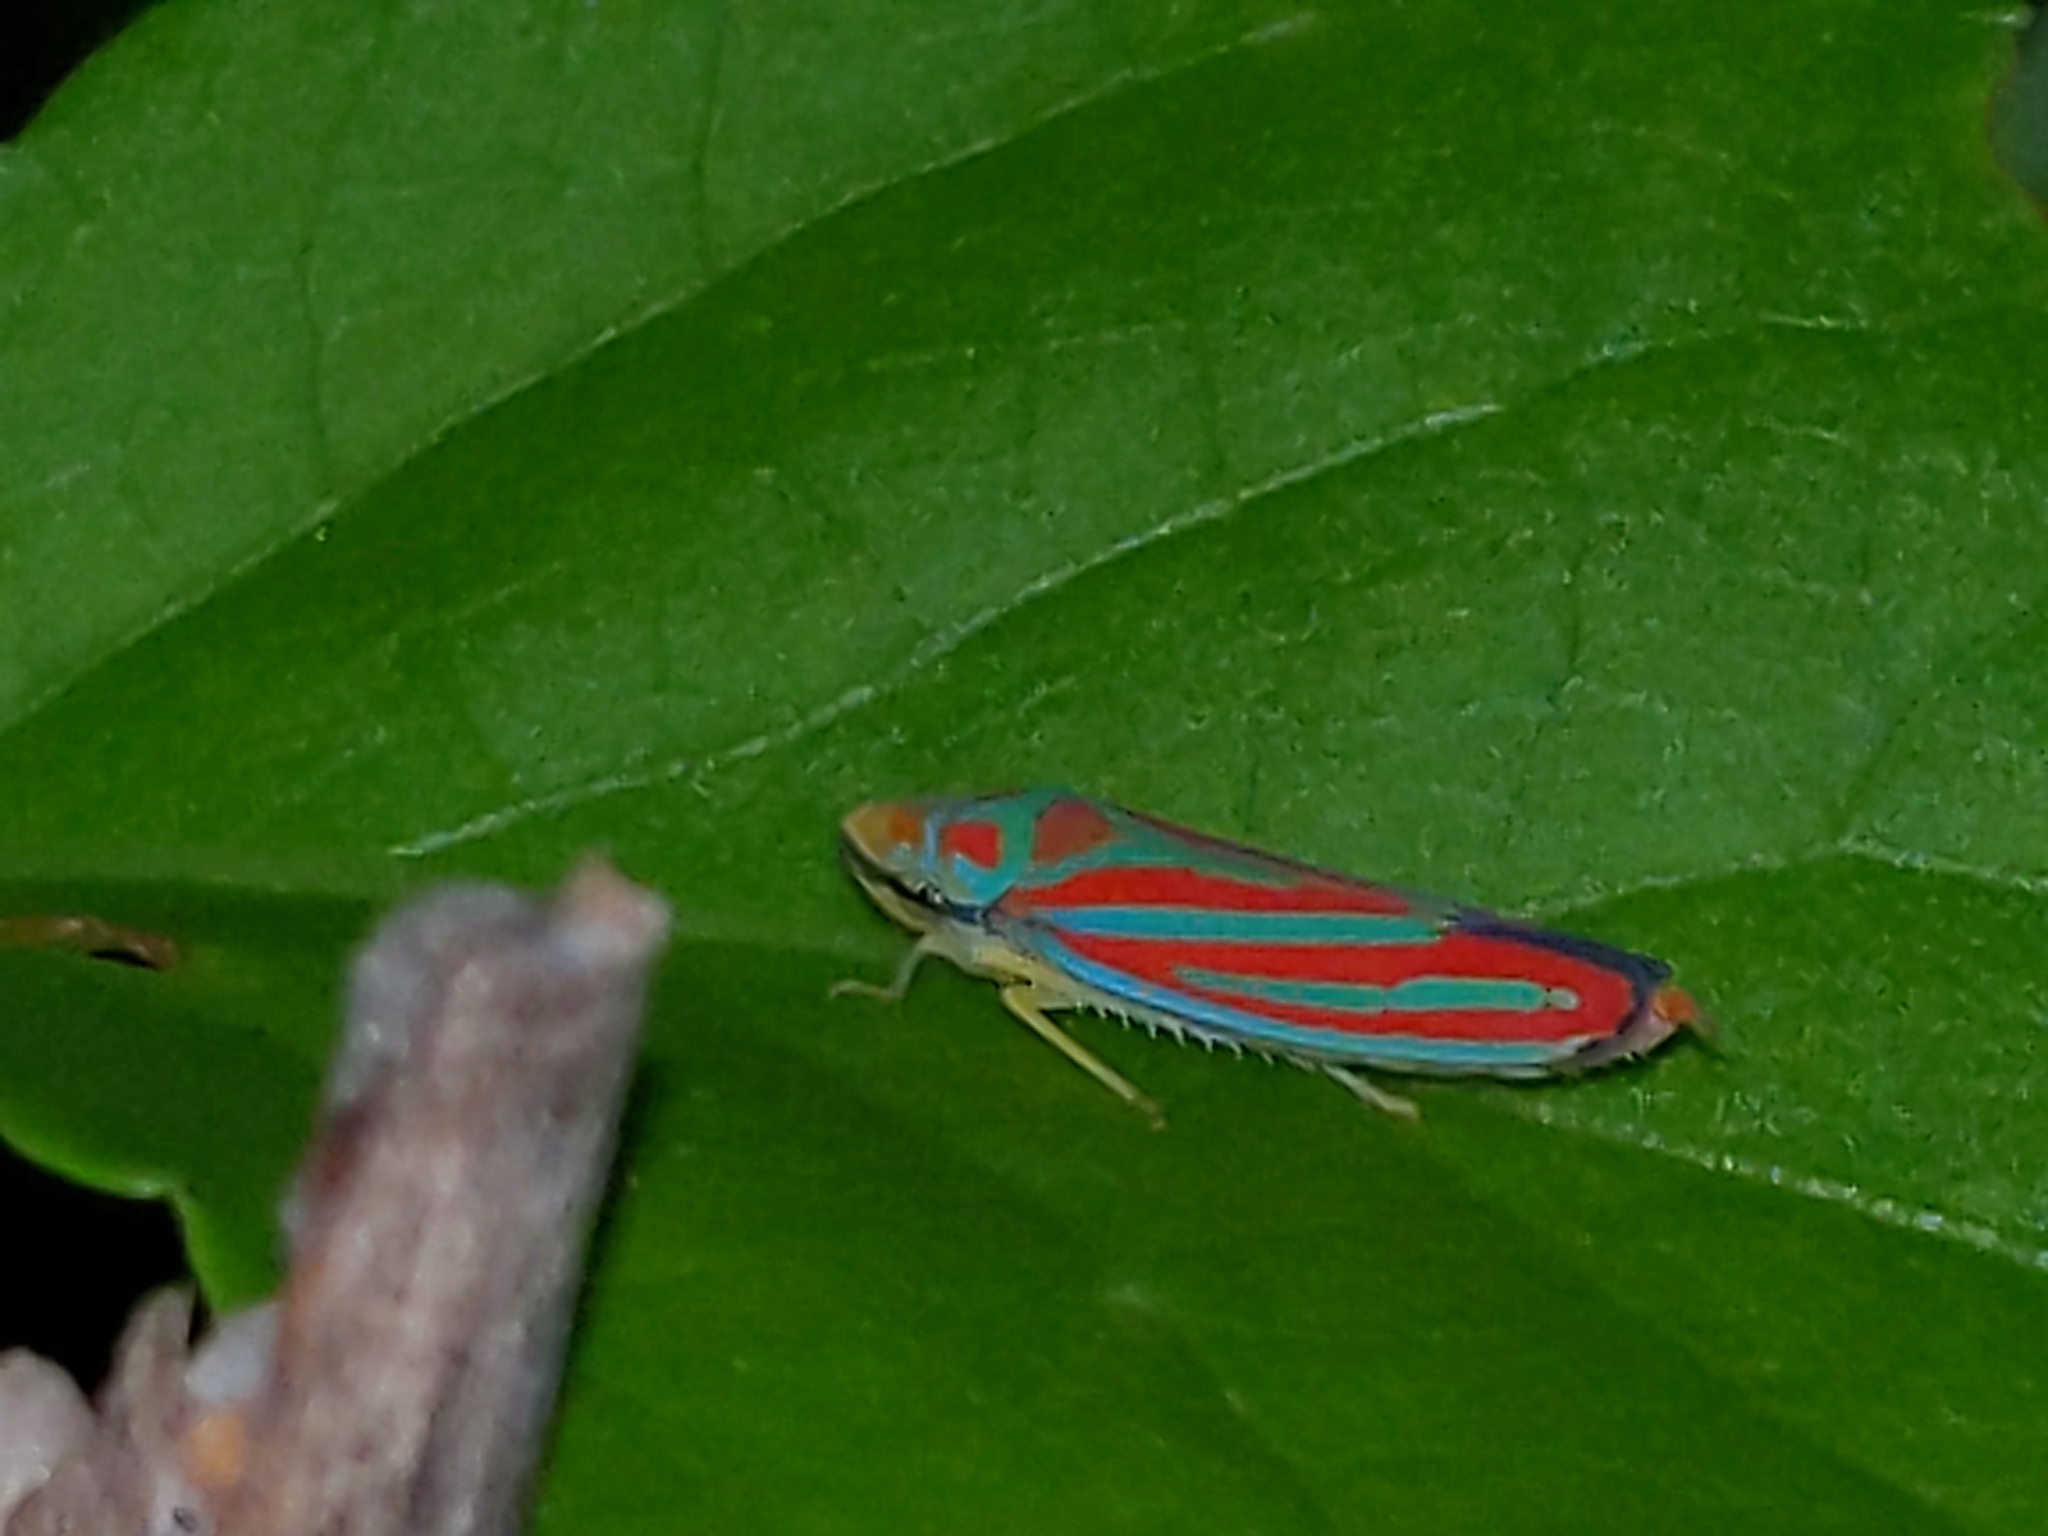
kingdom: Animalia
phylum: Arthropoda
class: Insecta
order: Hemiptera
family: Cicadellidae
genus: Graphocephala
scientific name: Graphocephala coccinea
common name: Candy-striped leafhopper
